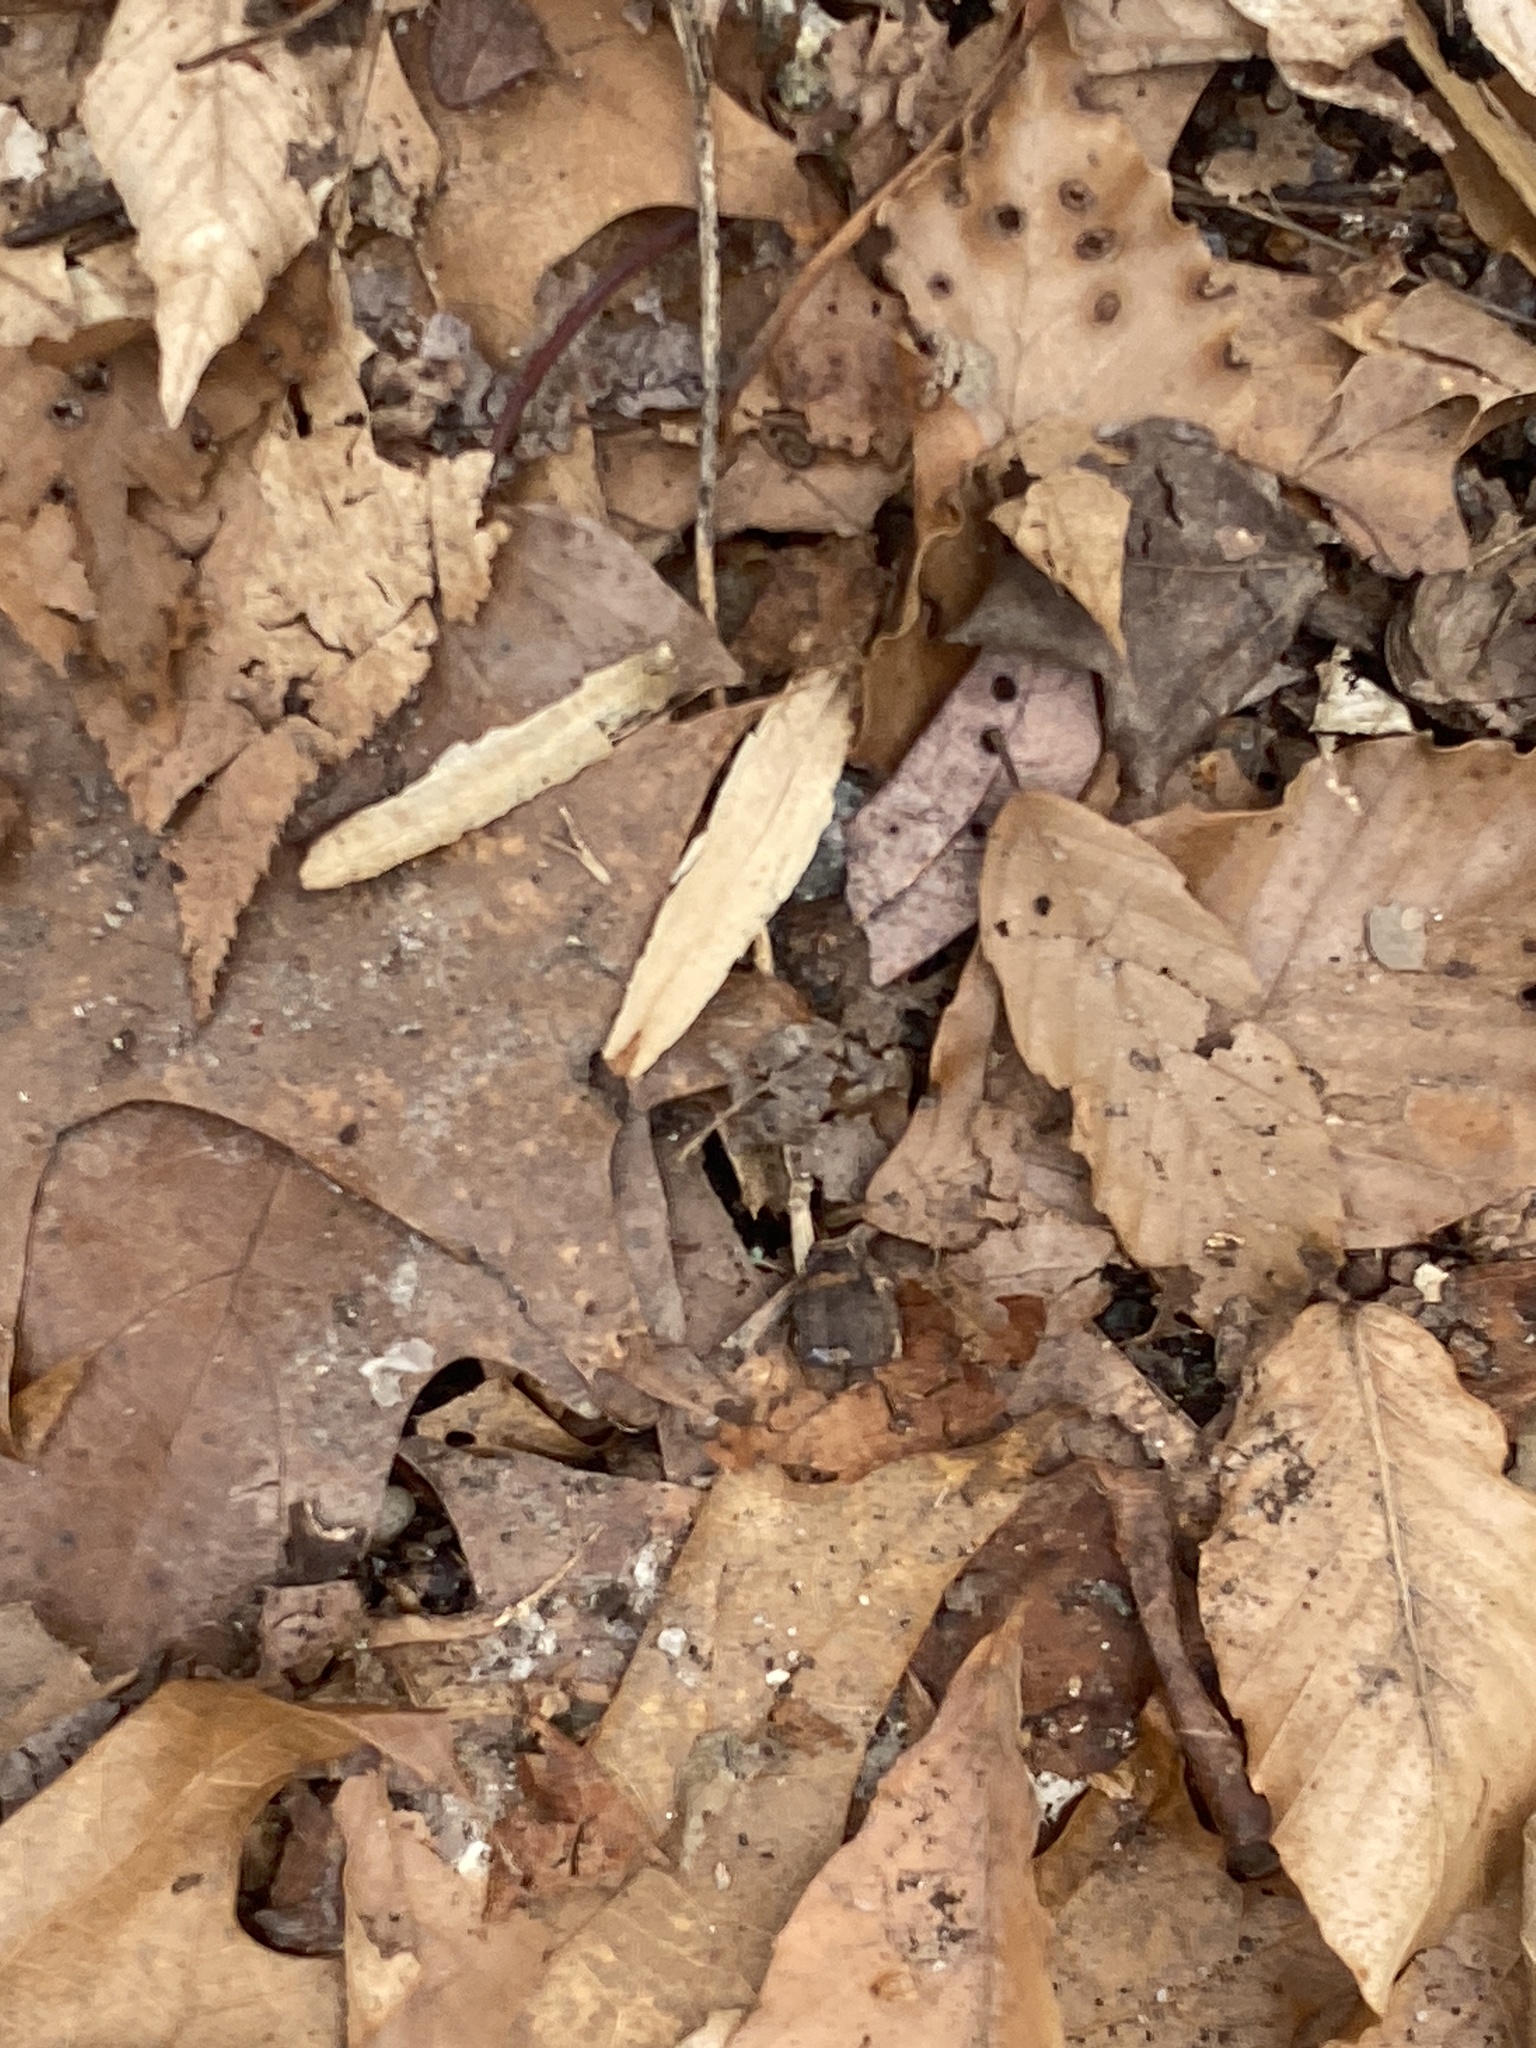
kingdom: Plantae
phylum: Tracheophyta
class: Magnoliopsida
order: Magnoliales
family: Magnoliaceae
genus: Liriodendron
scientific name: Liriodendron tulipifera
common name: Tulip tree
